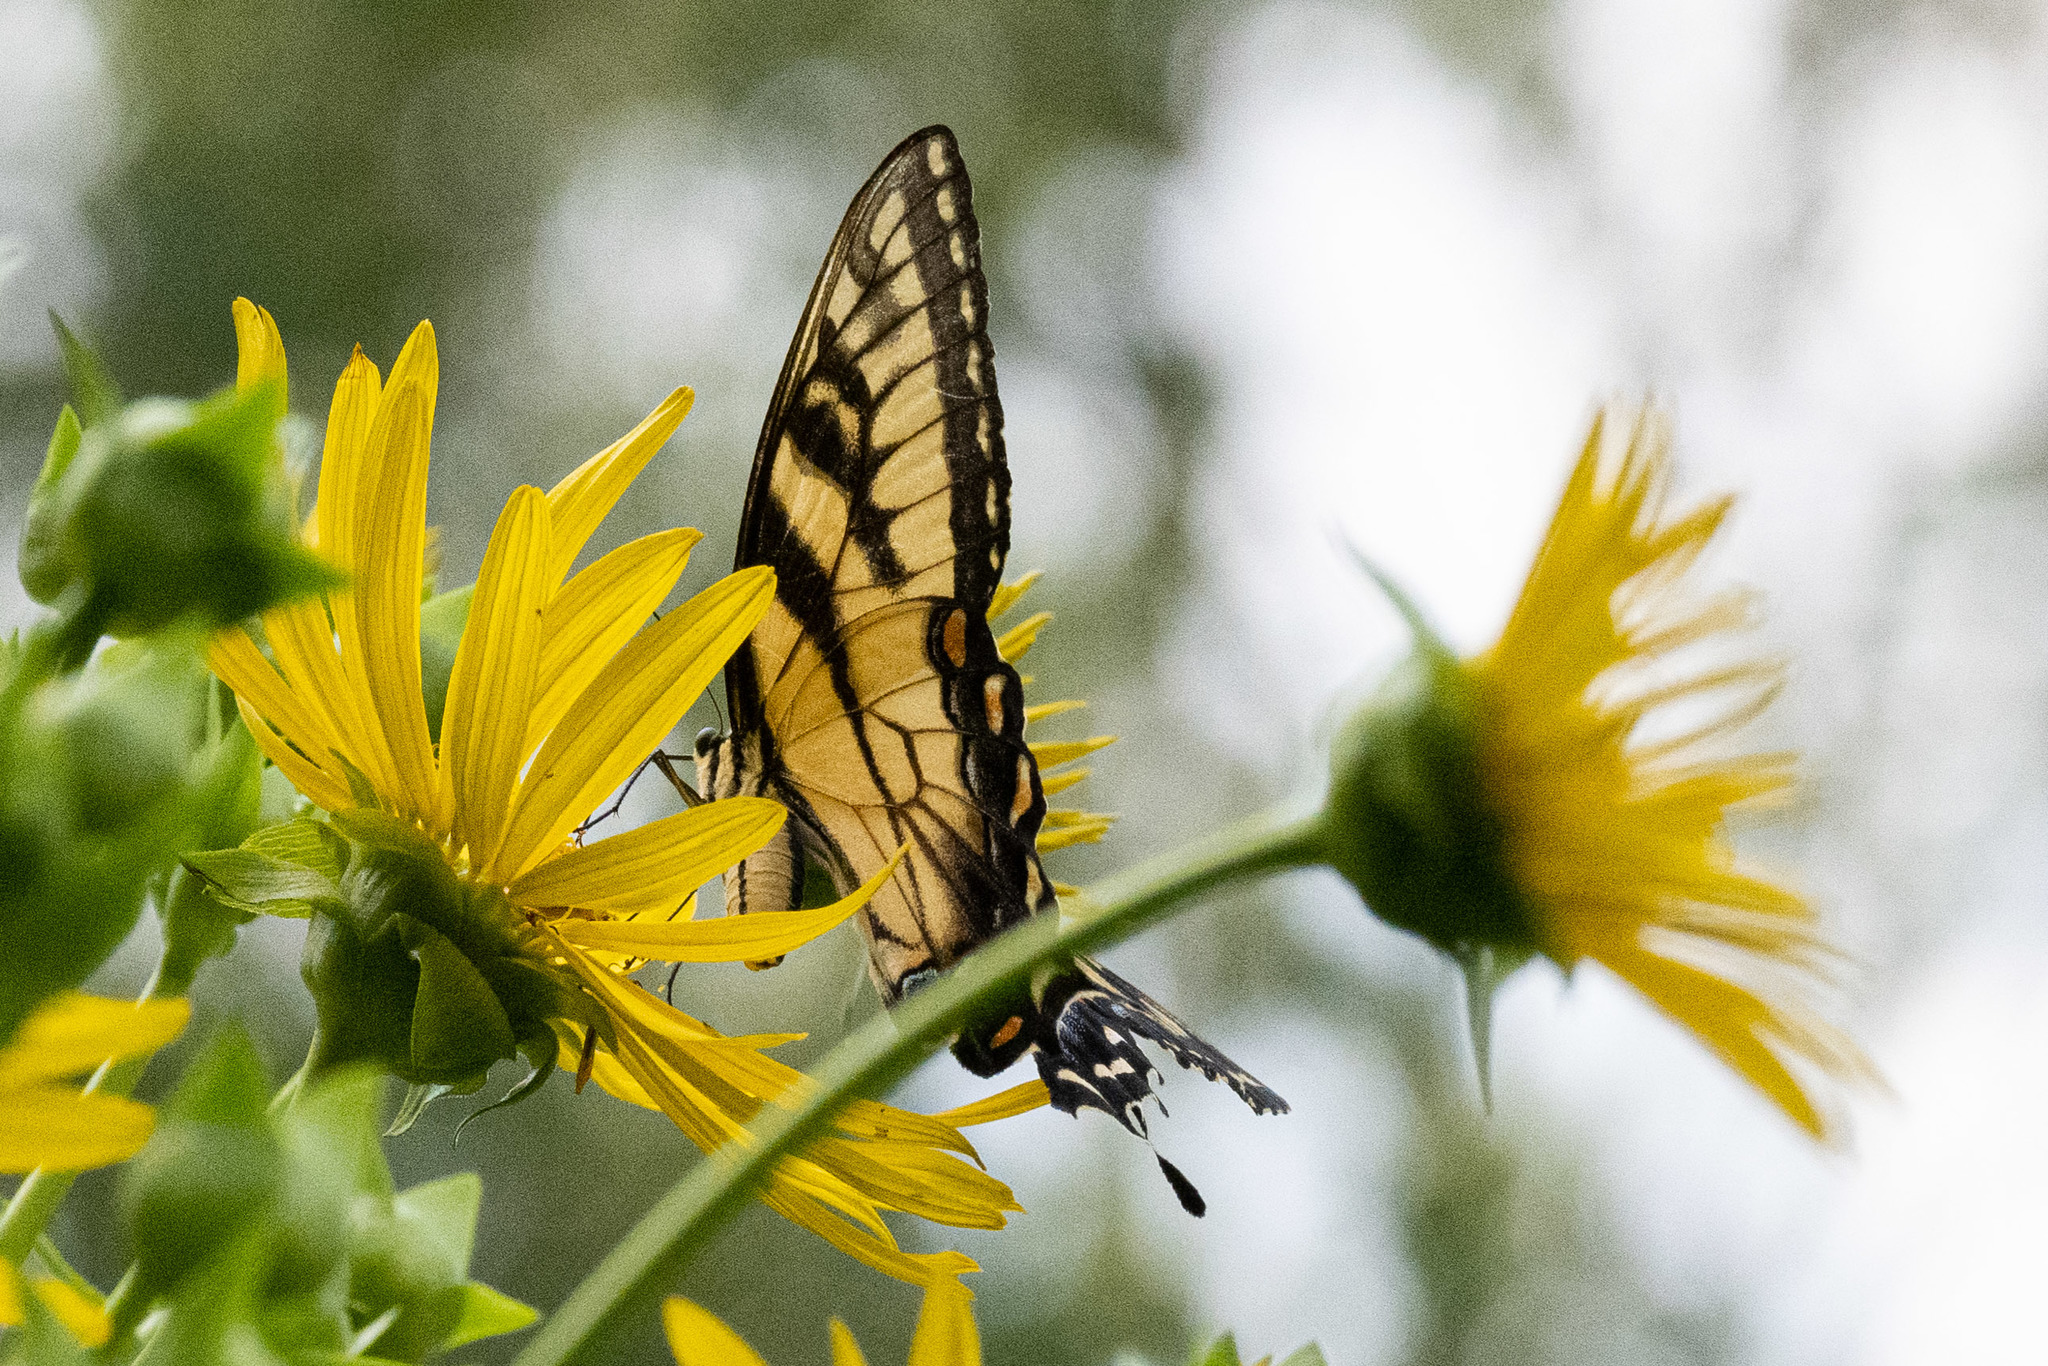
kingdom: Animalia
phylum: Arthropoda
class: Insecta
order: Lepidoptera
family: Papilionidae
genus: Papilio
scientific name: Papilio glaucus
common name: Tiger swallowtail
